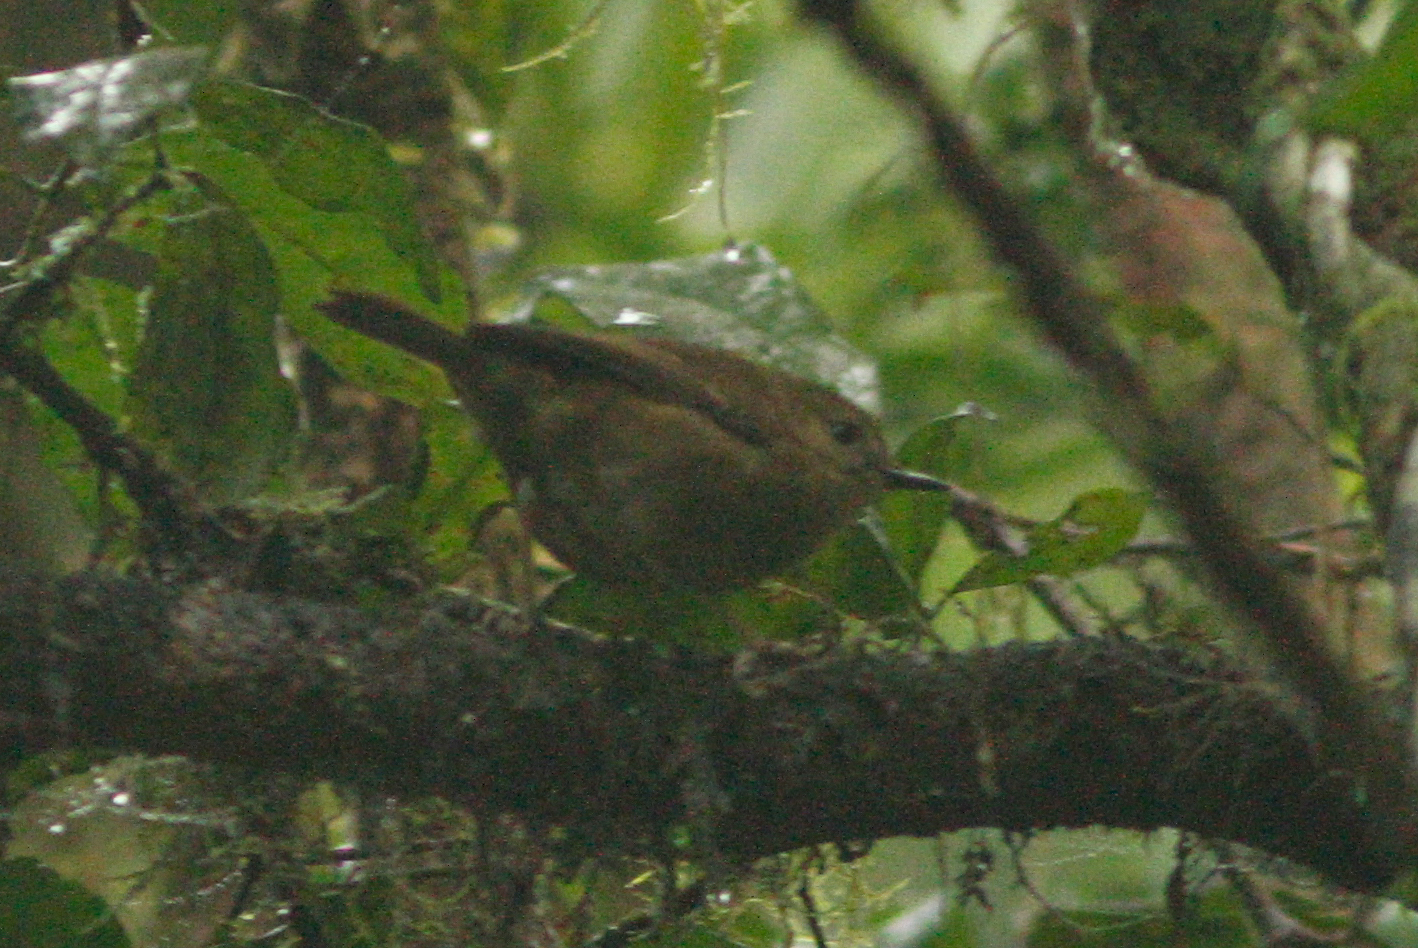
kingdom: Animalia
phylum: Chordata
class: Aves
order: Passeriformes
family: Acanthizidae
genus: Sericornis
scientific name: Sericornis keri
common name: Atherton scrubwren
